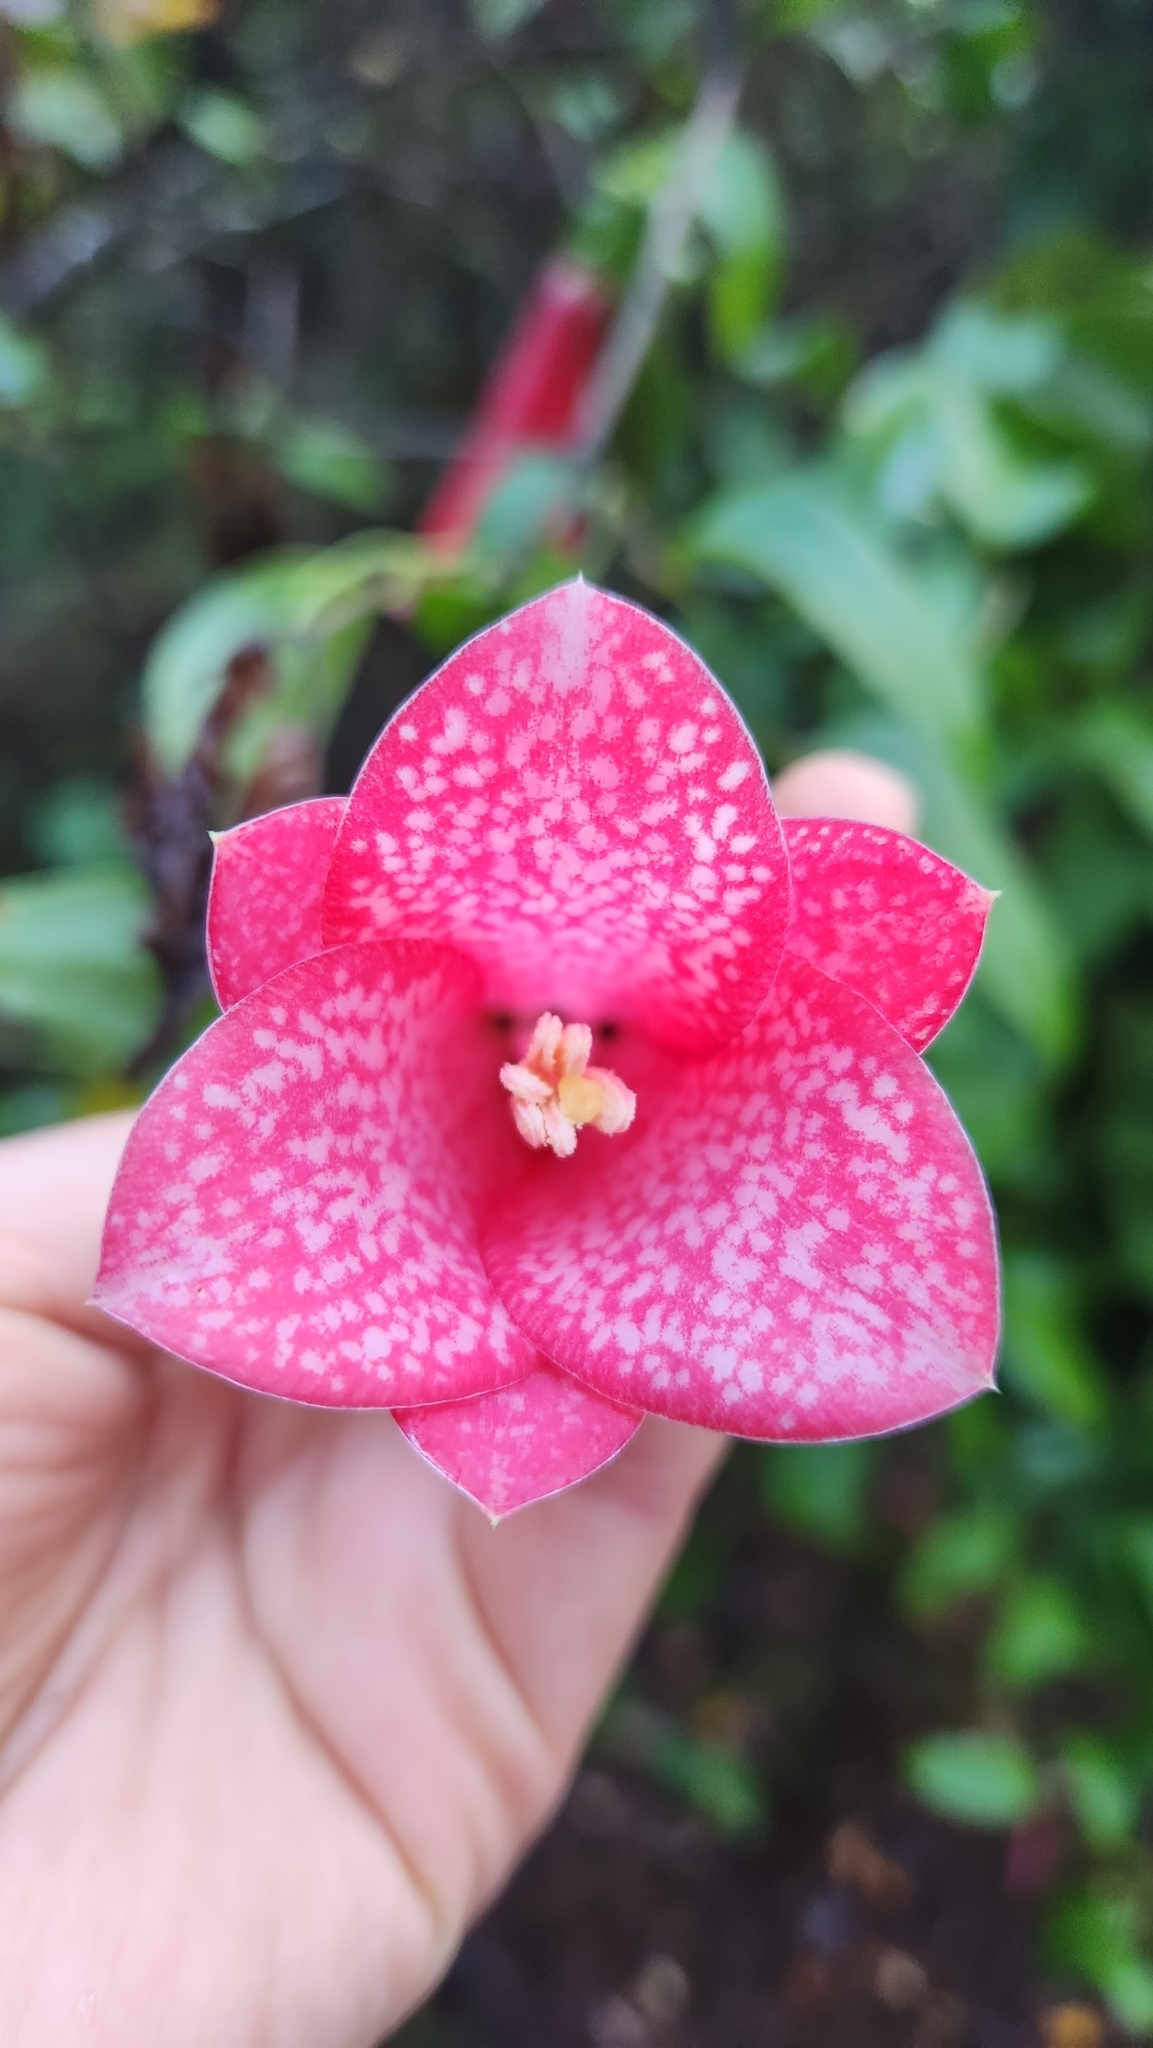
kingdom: Plantae
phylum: Tracheophyta
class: Liliopsida
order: Liliales
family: Philesiaceae
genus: Lapageria
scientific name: Lapageria rosea
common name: Chilean-bellflower
